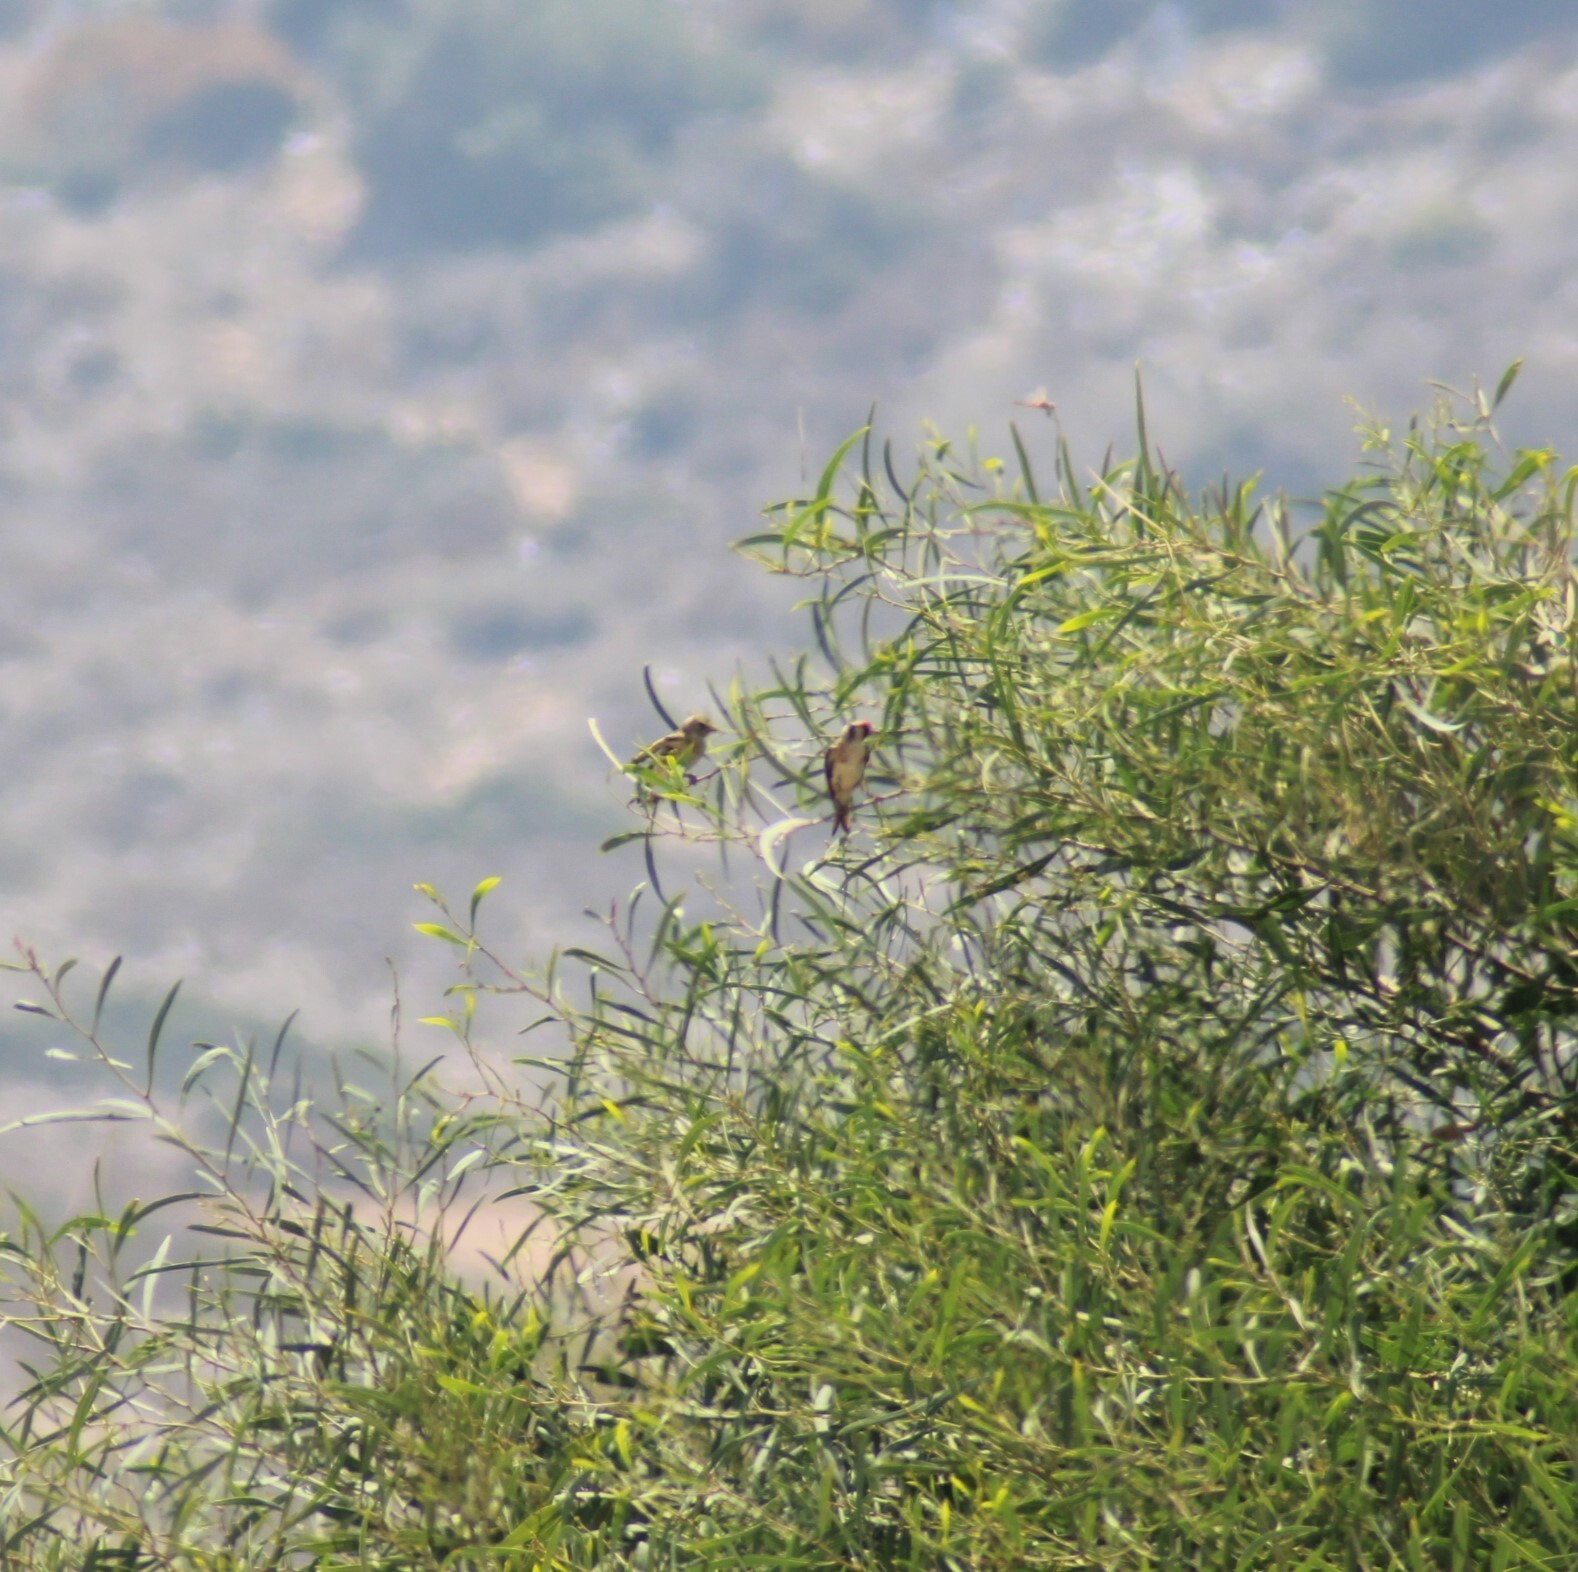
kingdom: Animalia
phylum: Chordata
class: Aves
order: Passeriformes
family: Fringillidae
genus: Carduelis
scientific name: Carduelis carduelis
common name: European goldfinch
